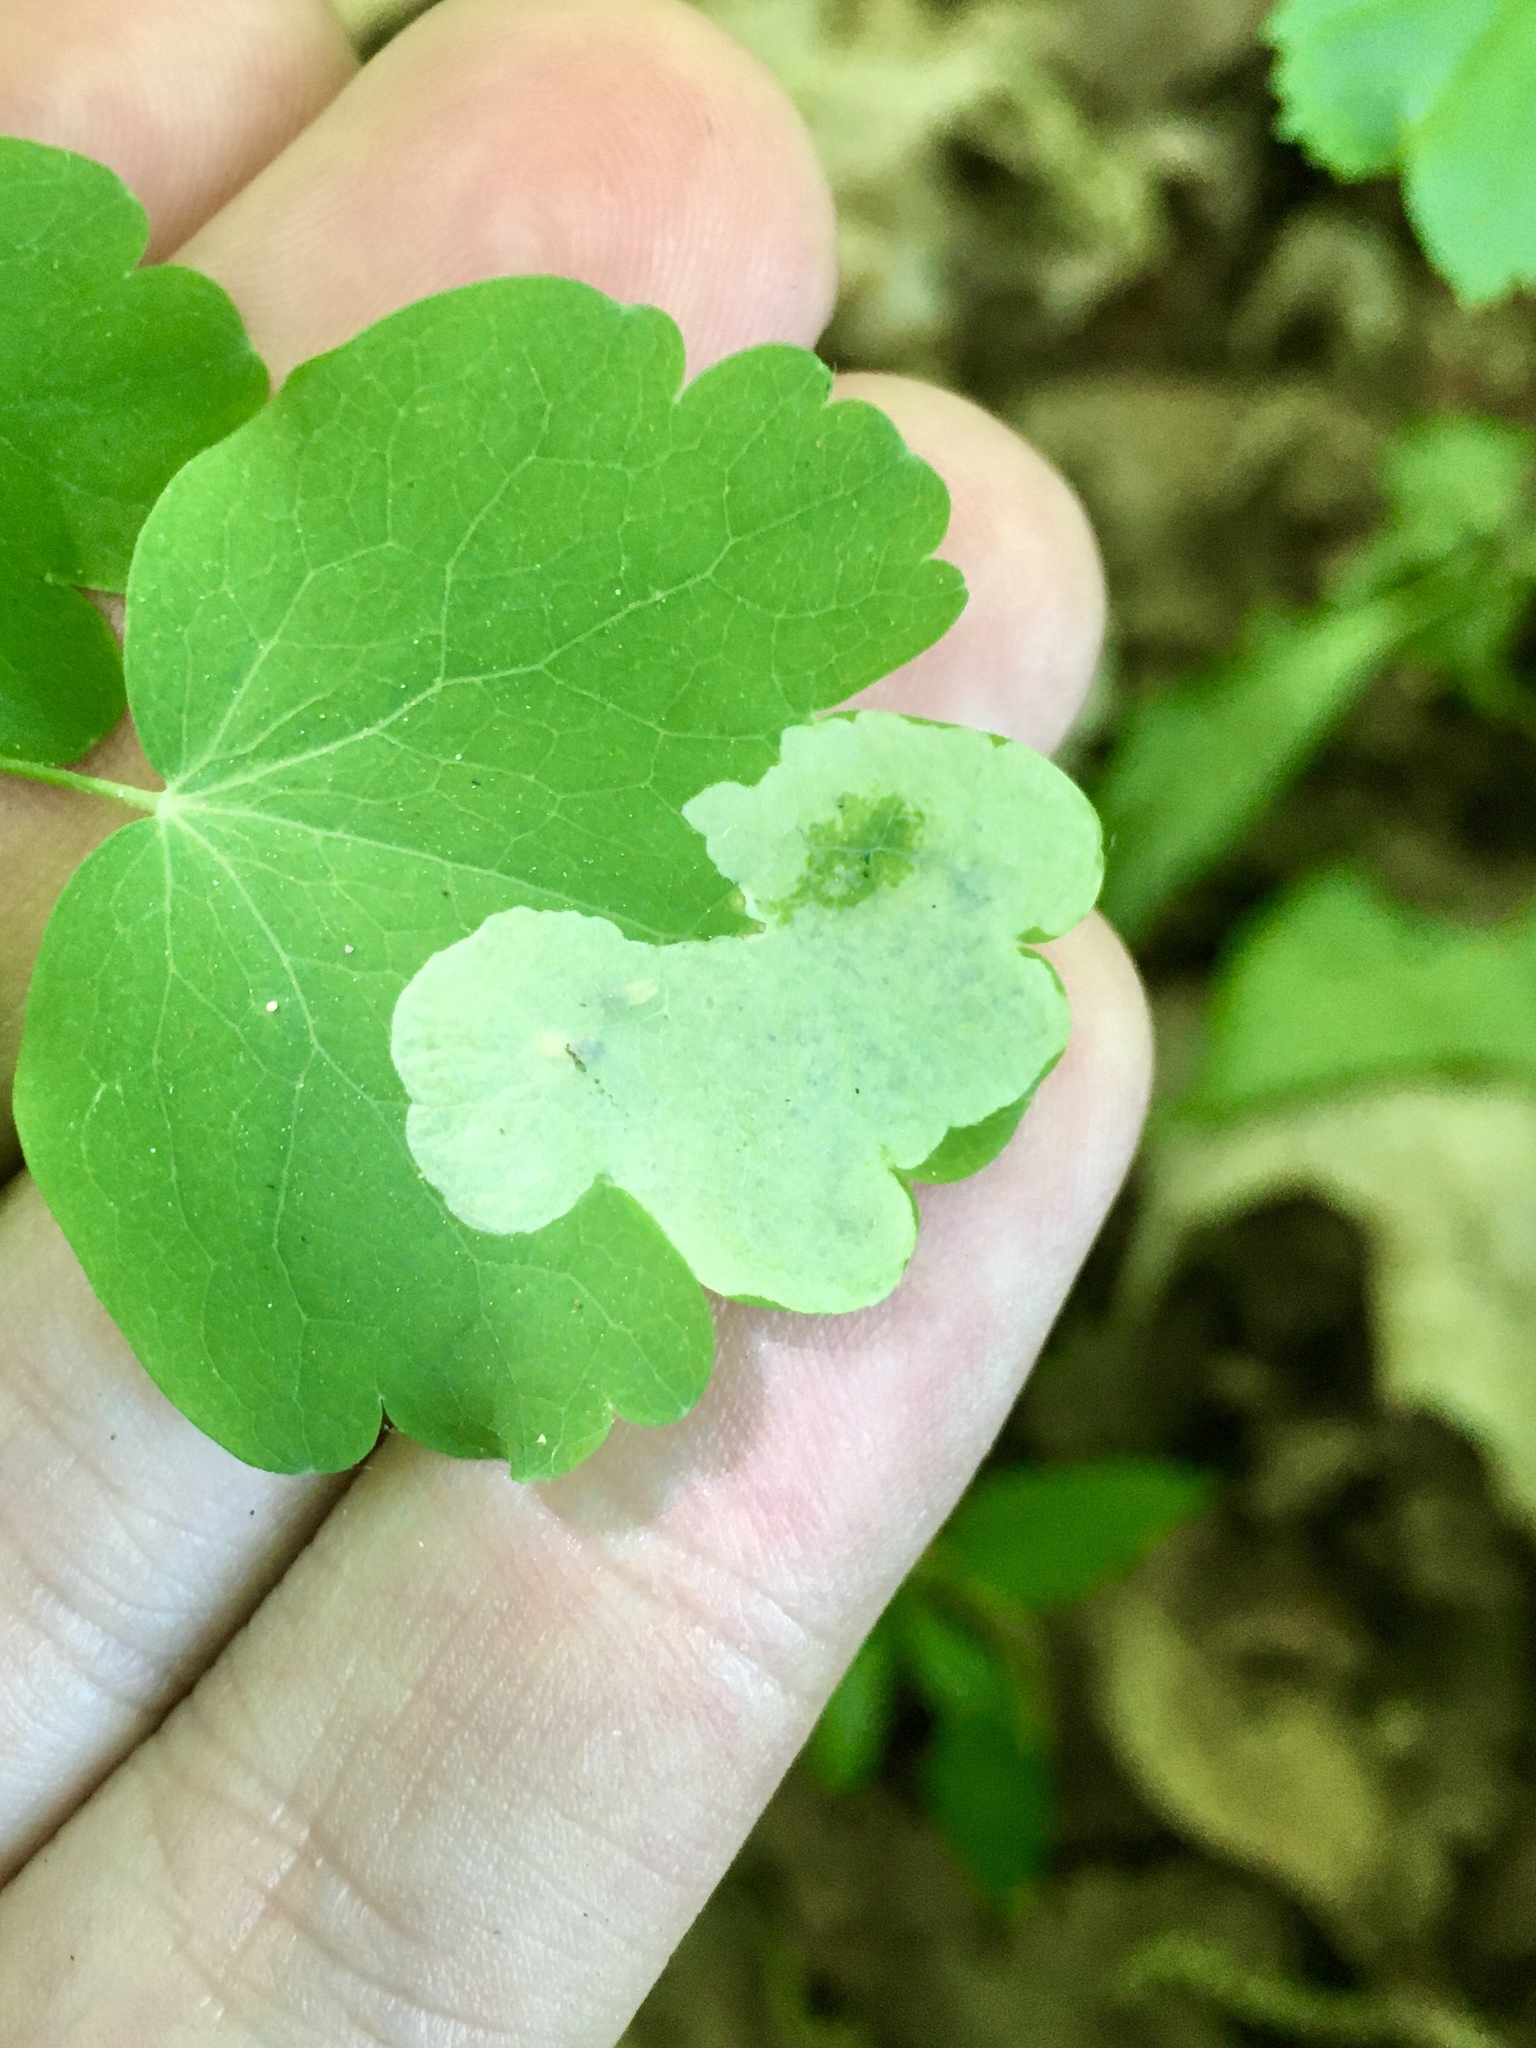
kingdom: Animalia
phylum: Arthropoda
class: Insecta
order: Diptera
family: Agromyzidae
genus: Phytomyza
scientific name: Phytomyza plumiseta
